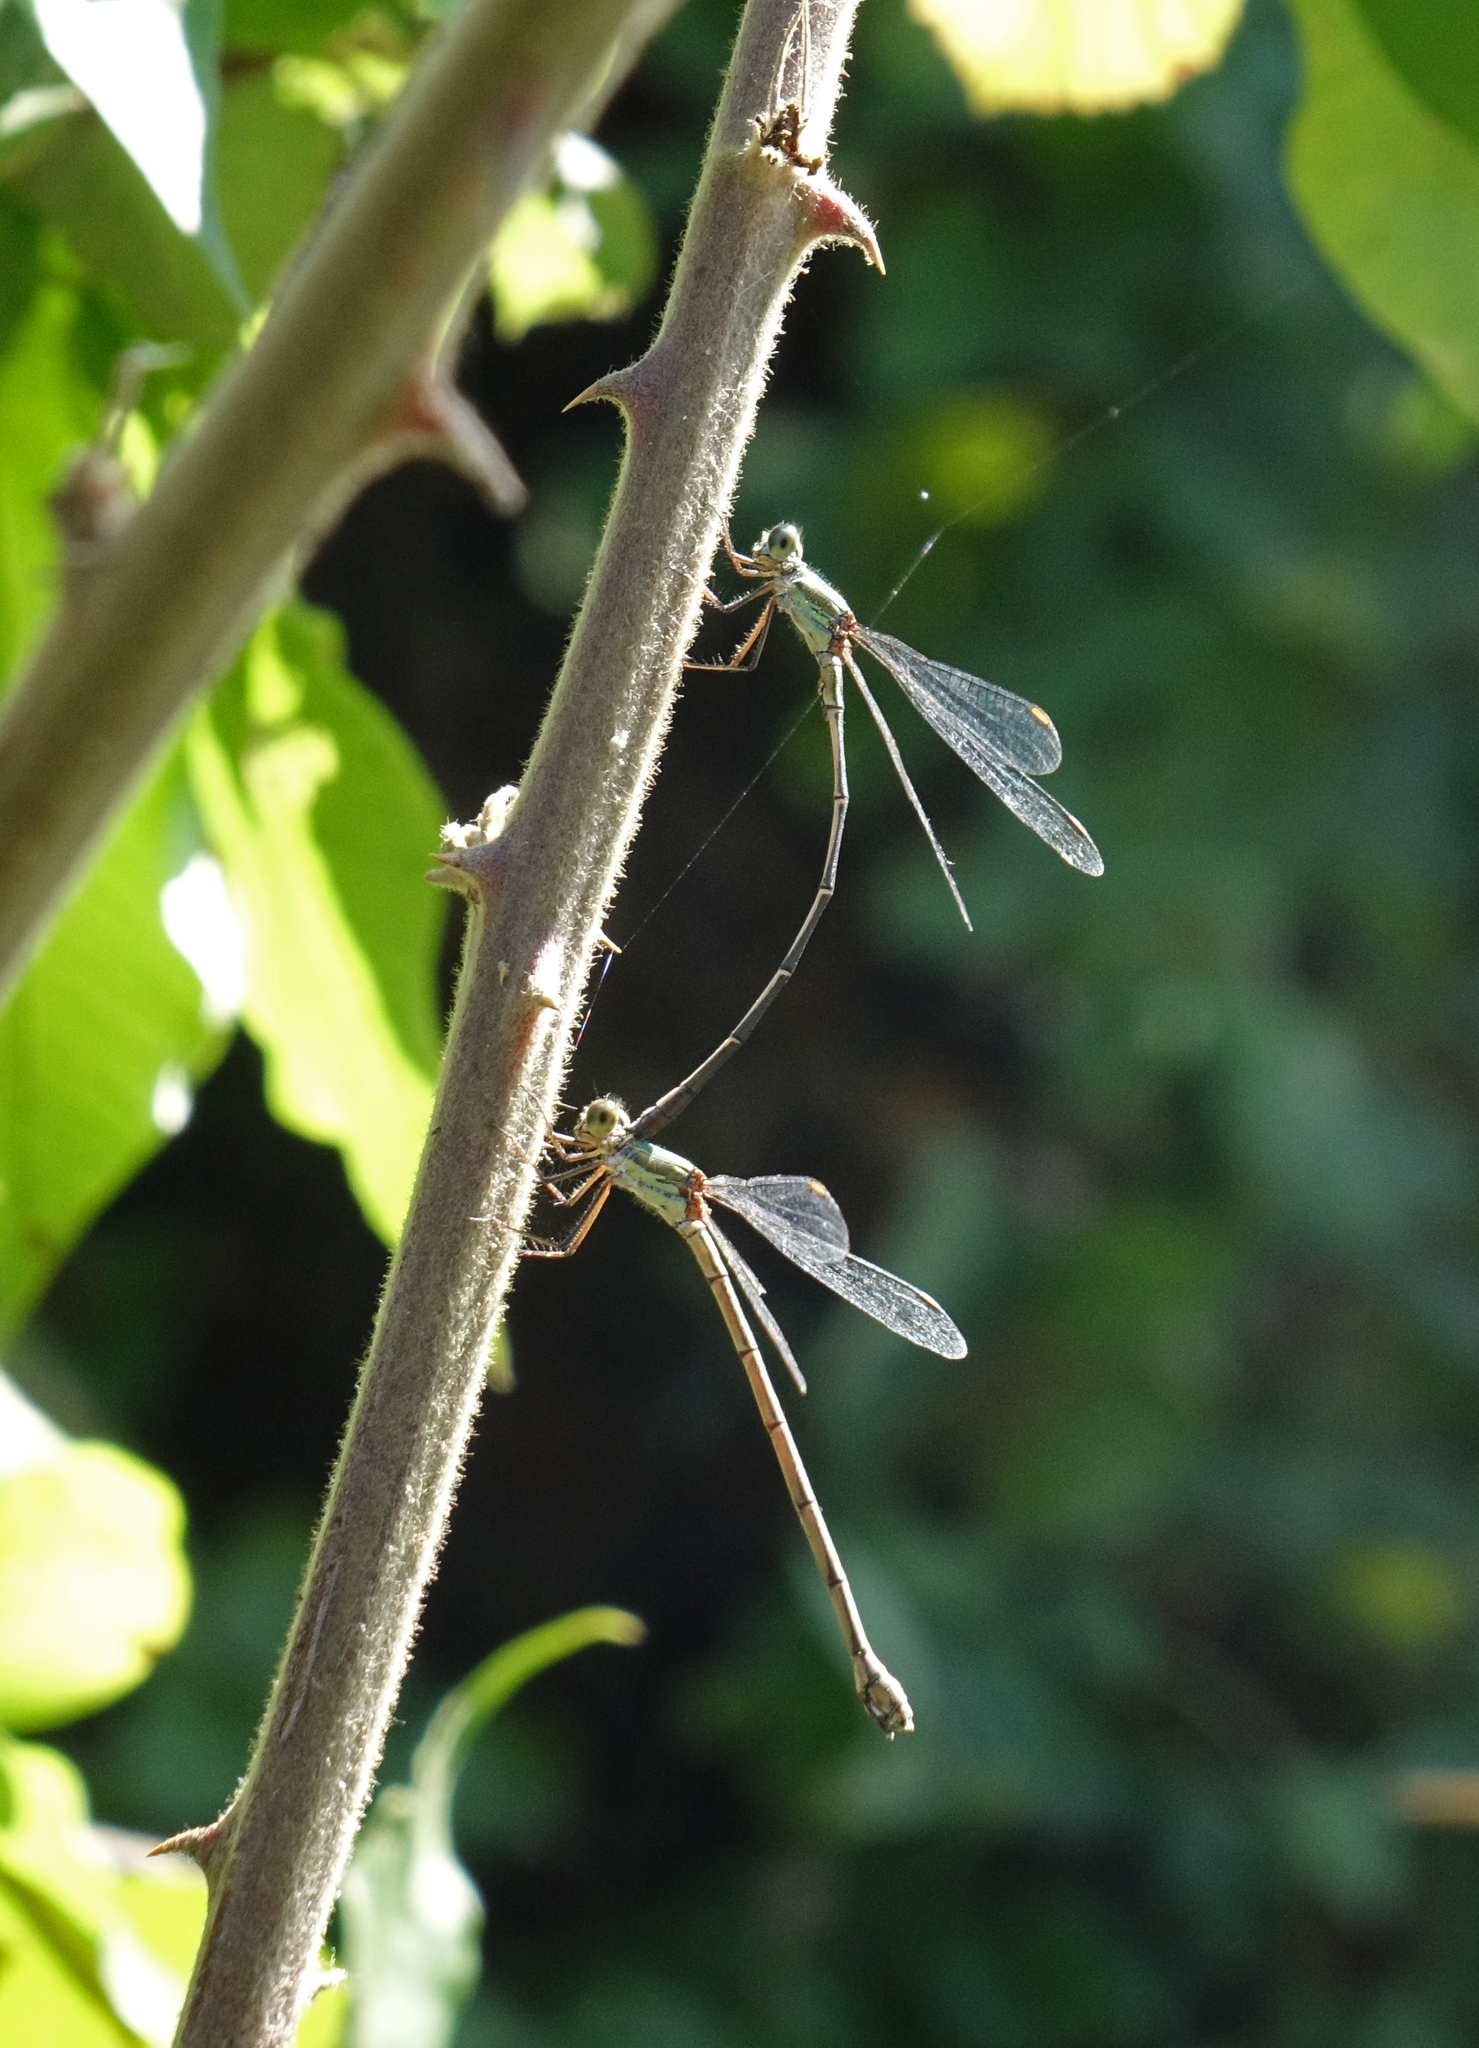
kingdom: Animalia
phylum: Arthropoda
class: Insecta
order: Odonata
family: Lestidae
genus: Chalcolestes
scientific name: Chalcolestes parvidens
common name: Eastern willow spreadwing
